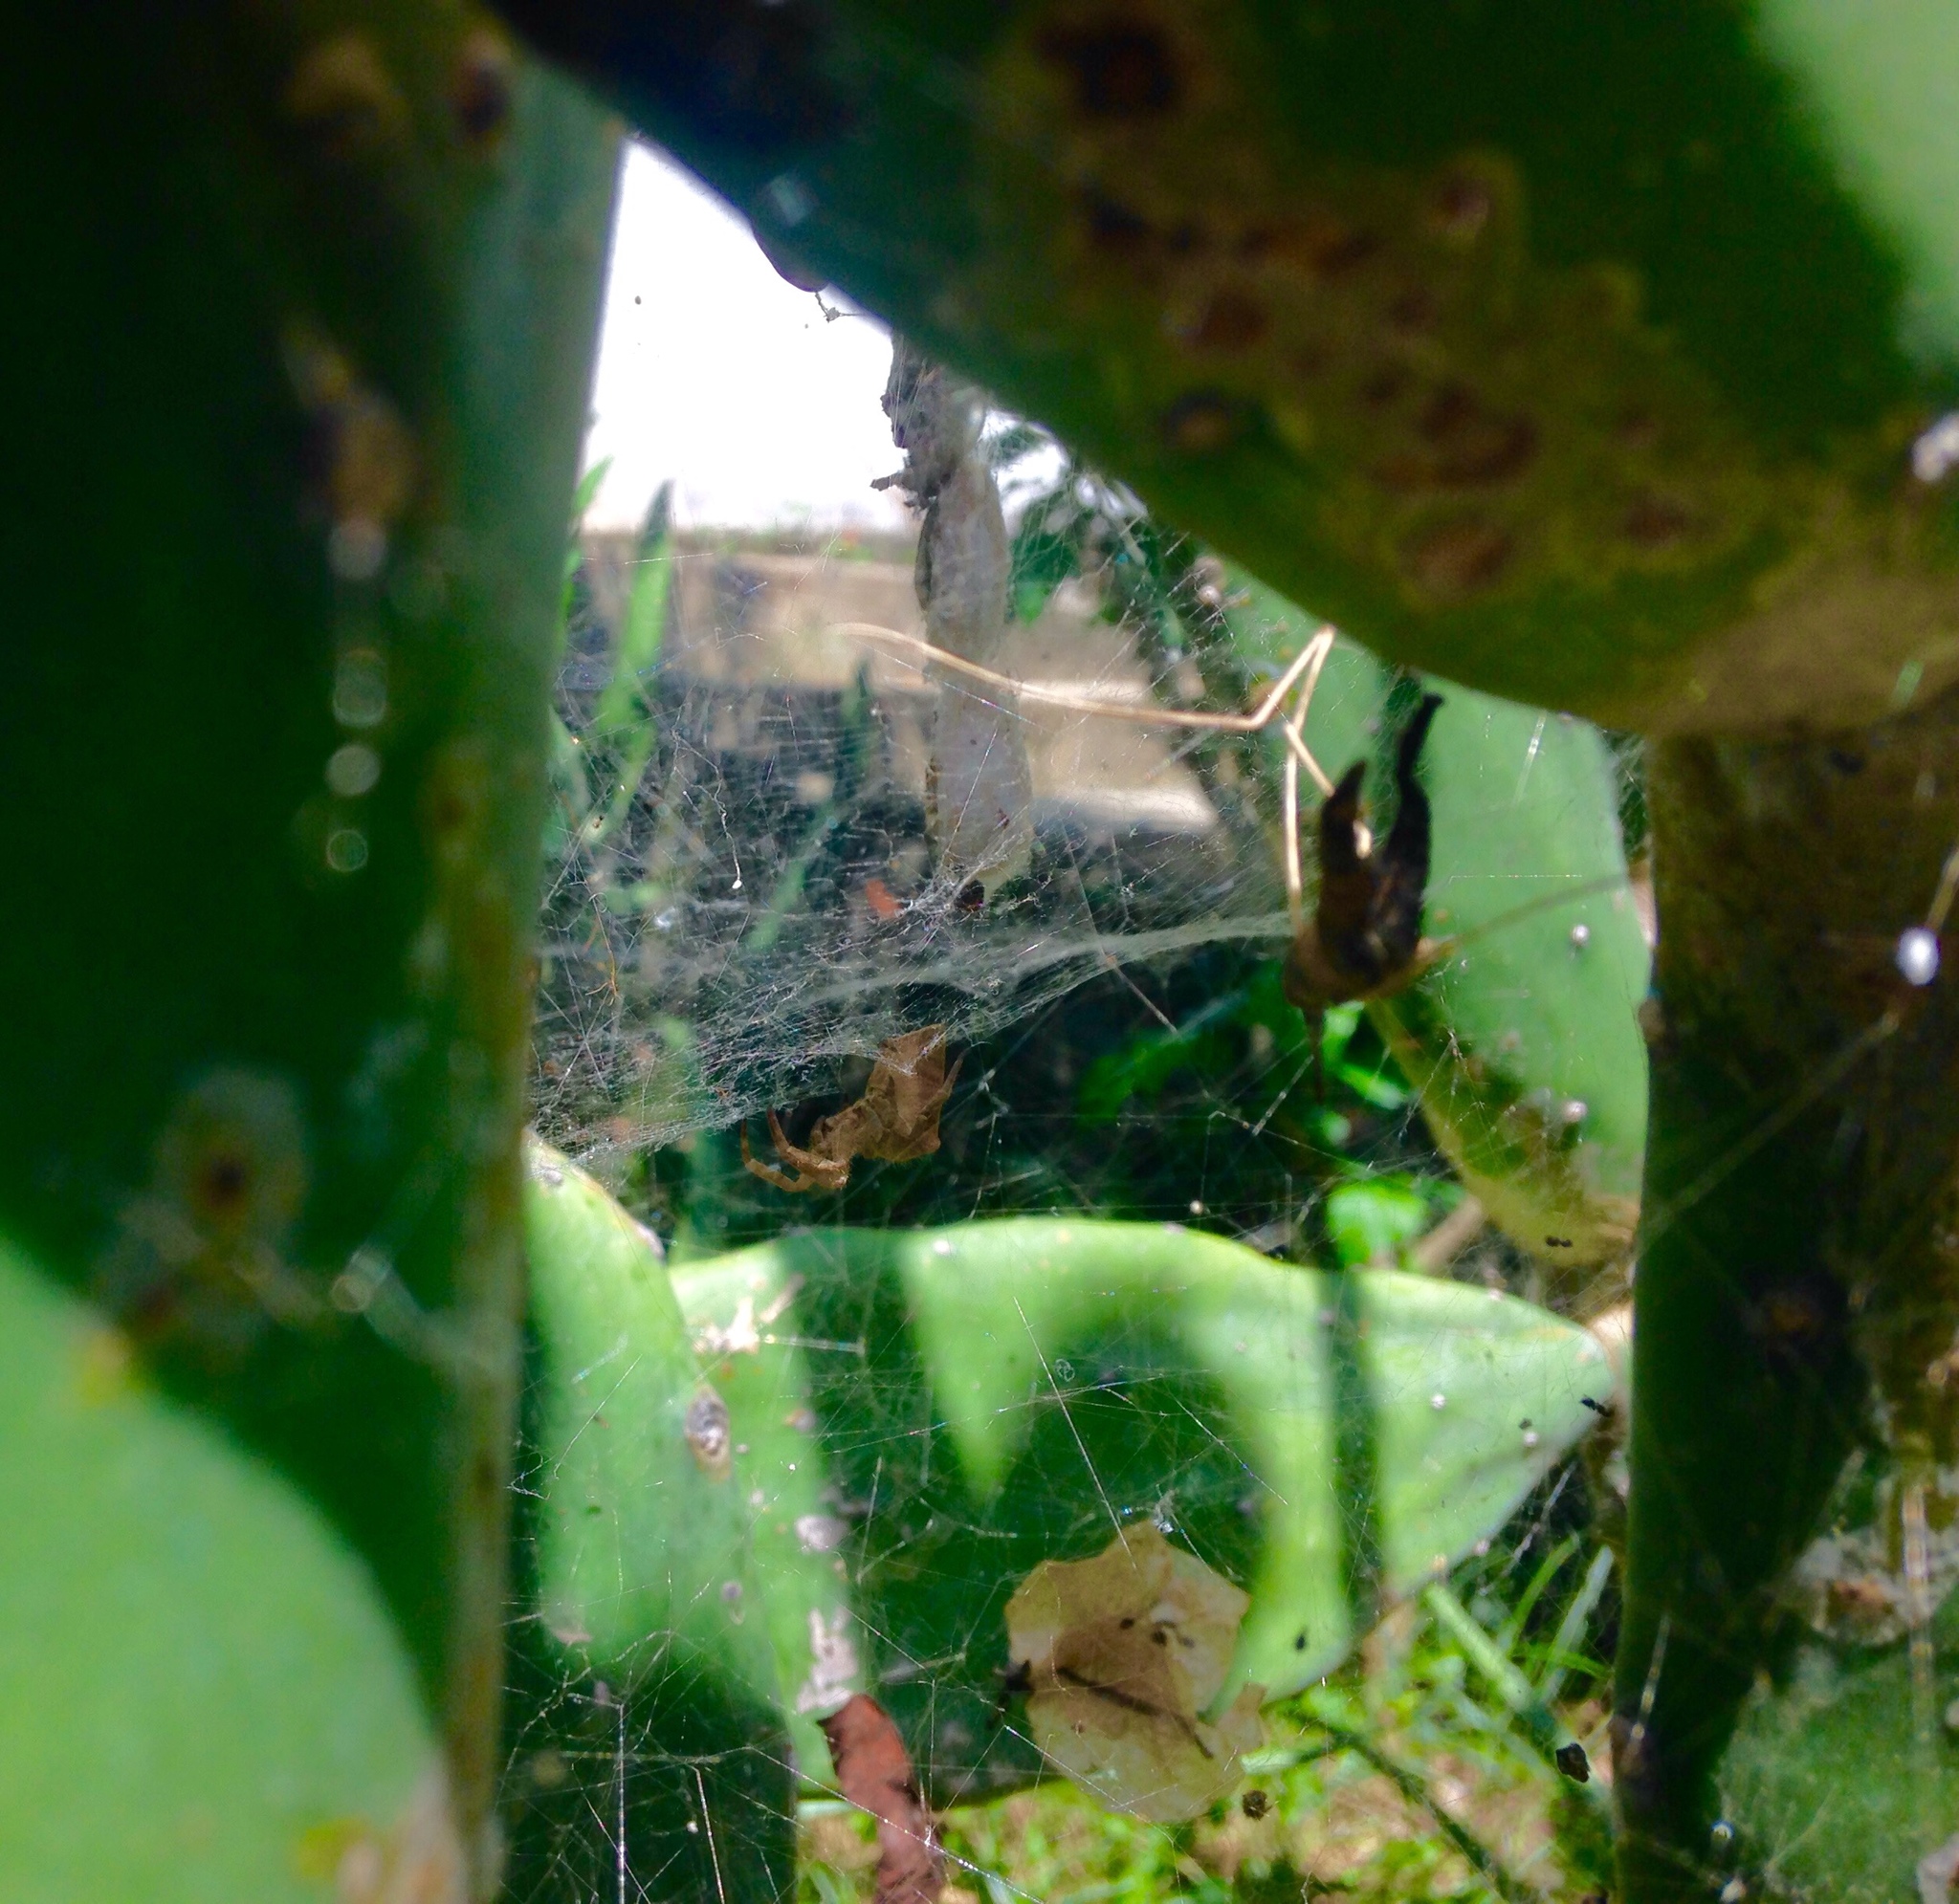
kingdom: Animalia
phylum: Arthropoda
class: Arachnida
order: Araneae
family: Araneidae
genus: Cyrtophora
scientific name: Cyrtophora citricola
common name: Orb weavers
